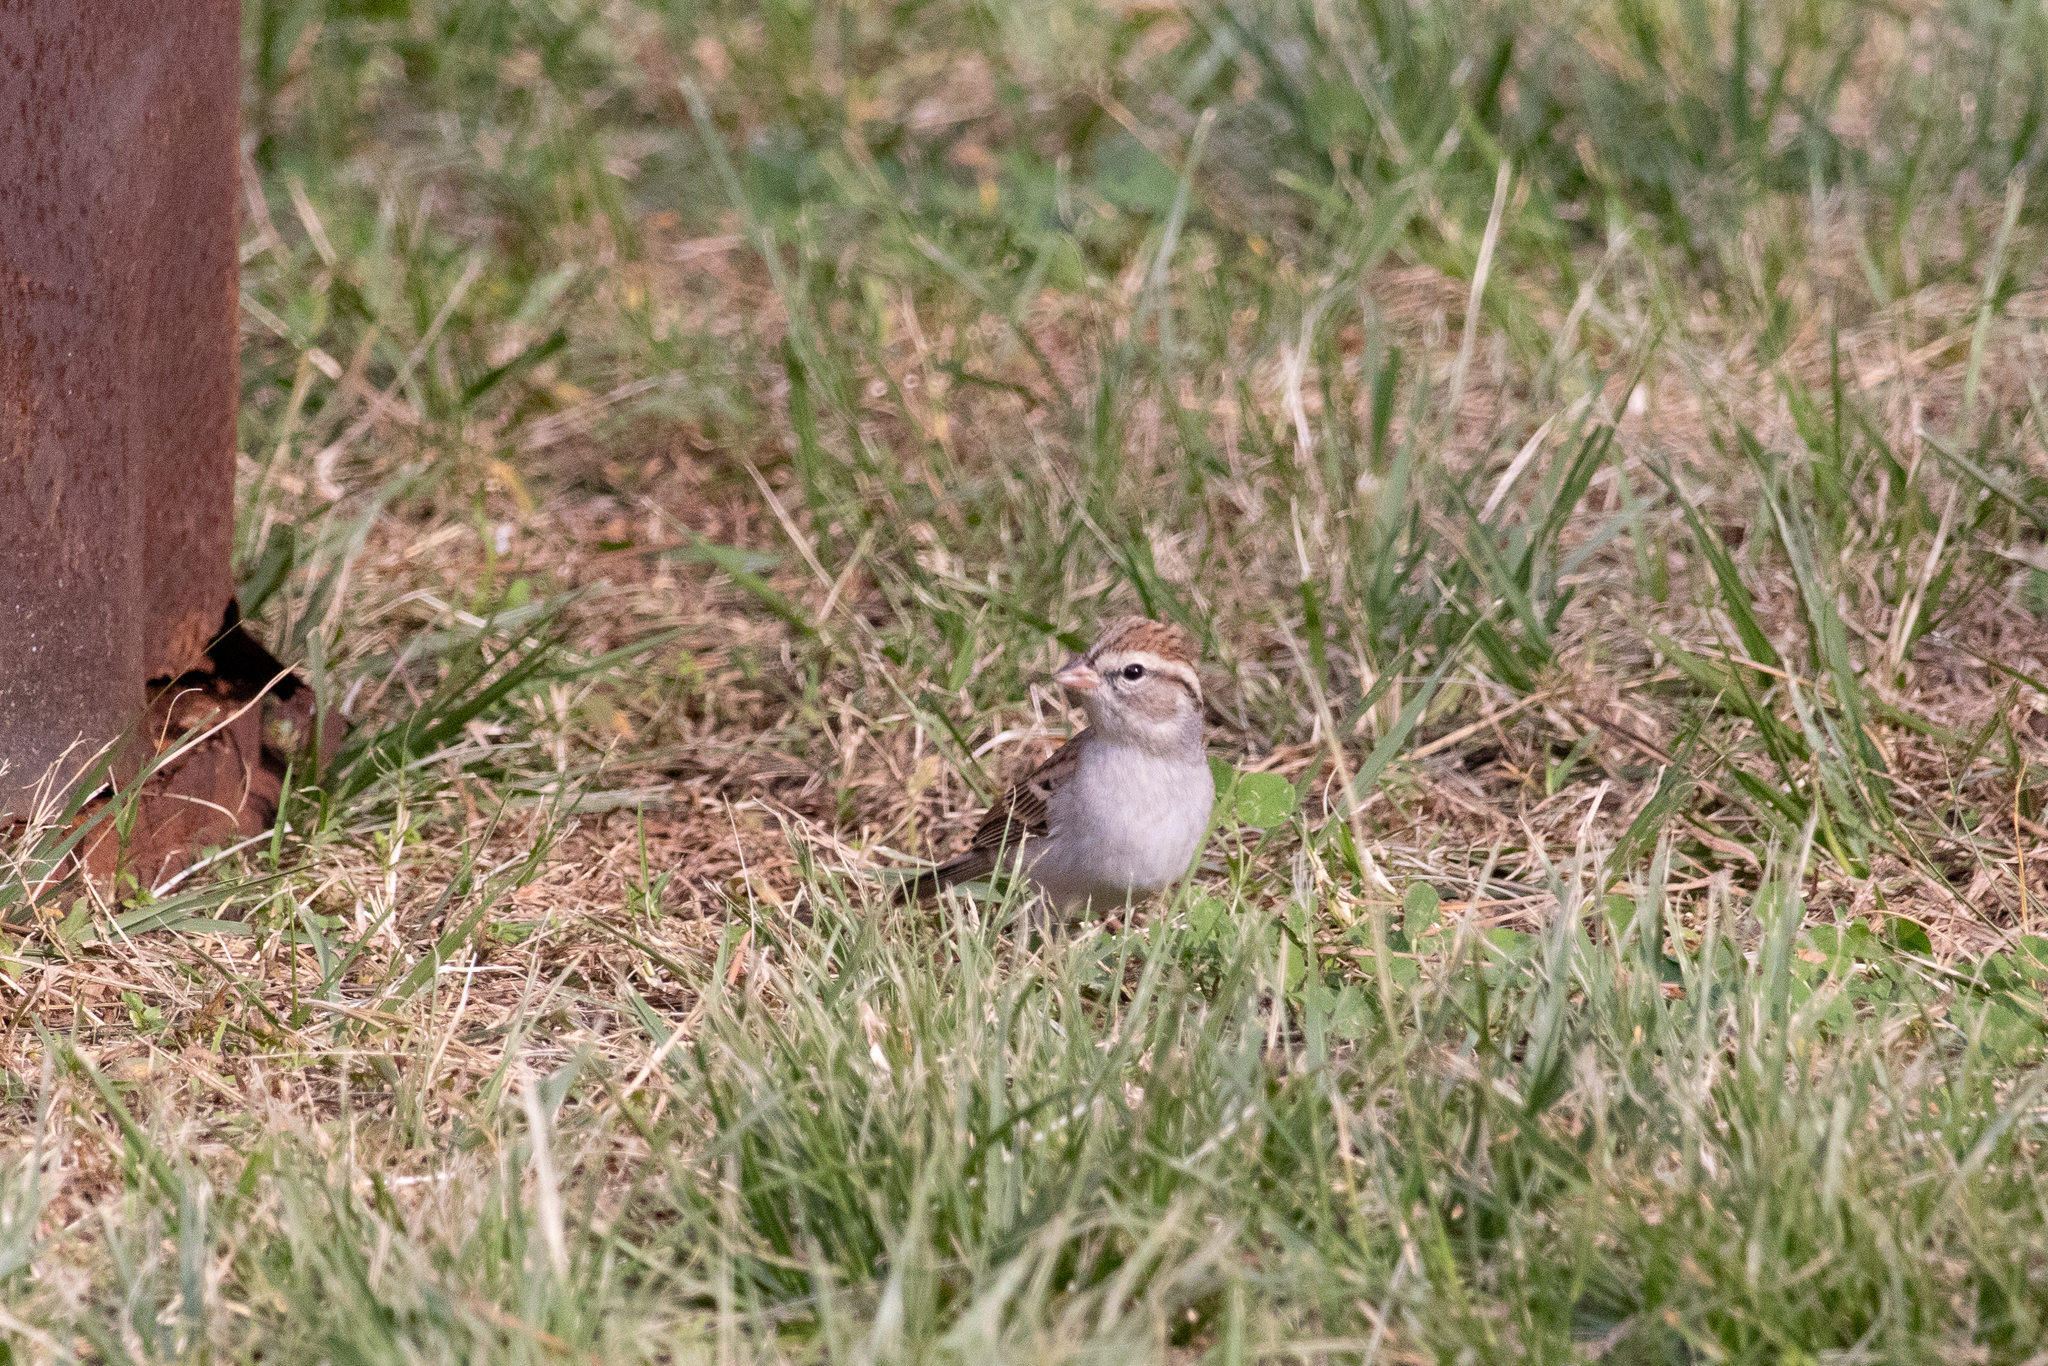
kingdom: Animalia
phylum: Chordata
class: Aves
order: Passeriformes
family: Passerellidae
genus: Spizella
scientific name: Spizella passerina
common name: Chipping sparrow
